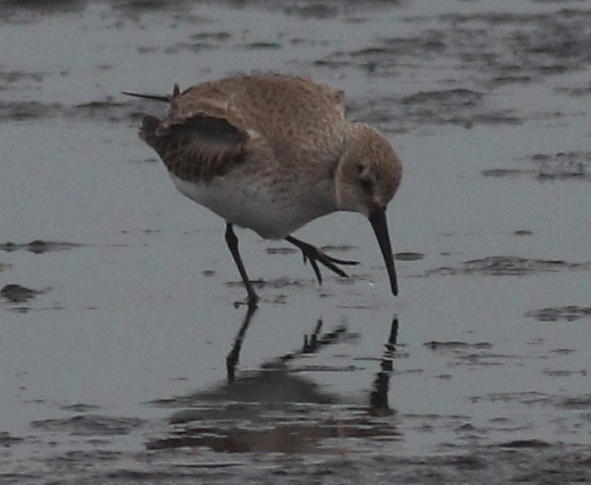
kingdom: Animalia
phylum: Chordata
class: Aves
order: Charadriiformes
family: Scolopacidae
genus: Calidris
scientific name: Calidris alpina
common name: Dunlin
